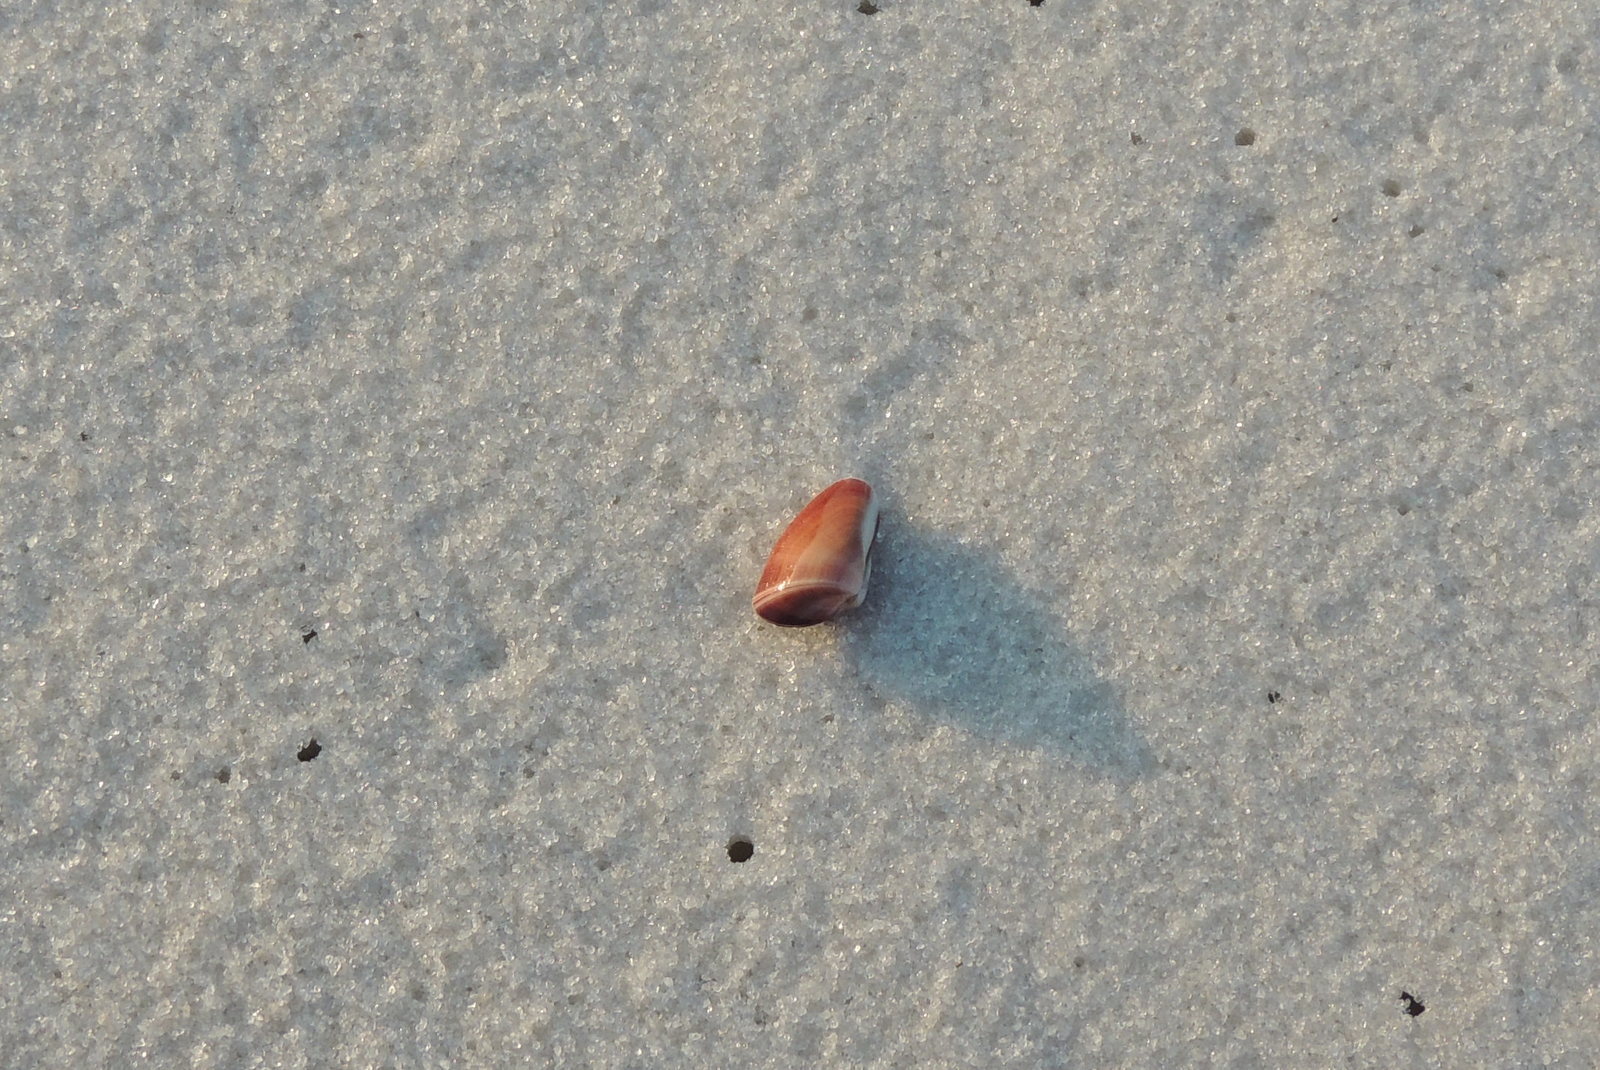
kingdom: Animalia
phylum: Mollusca
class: Bivalvia
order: Cardiida
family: Donacidae
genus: Donax
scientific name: Donax variabilis
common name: Butterfly shell
